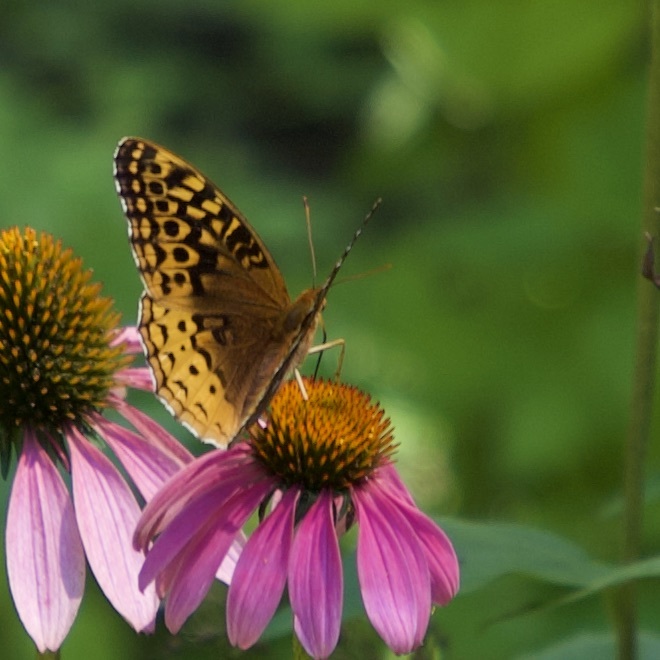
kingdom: Animalia
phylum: Arthropoda
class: Insecta
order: Lepidoptera
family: Nymphalidae
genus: Speyeria
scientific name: Speyeria cybele
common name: Great spangled fritillary
